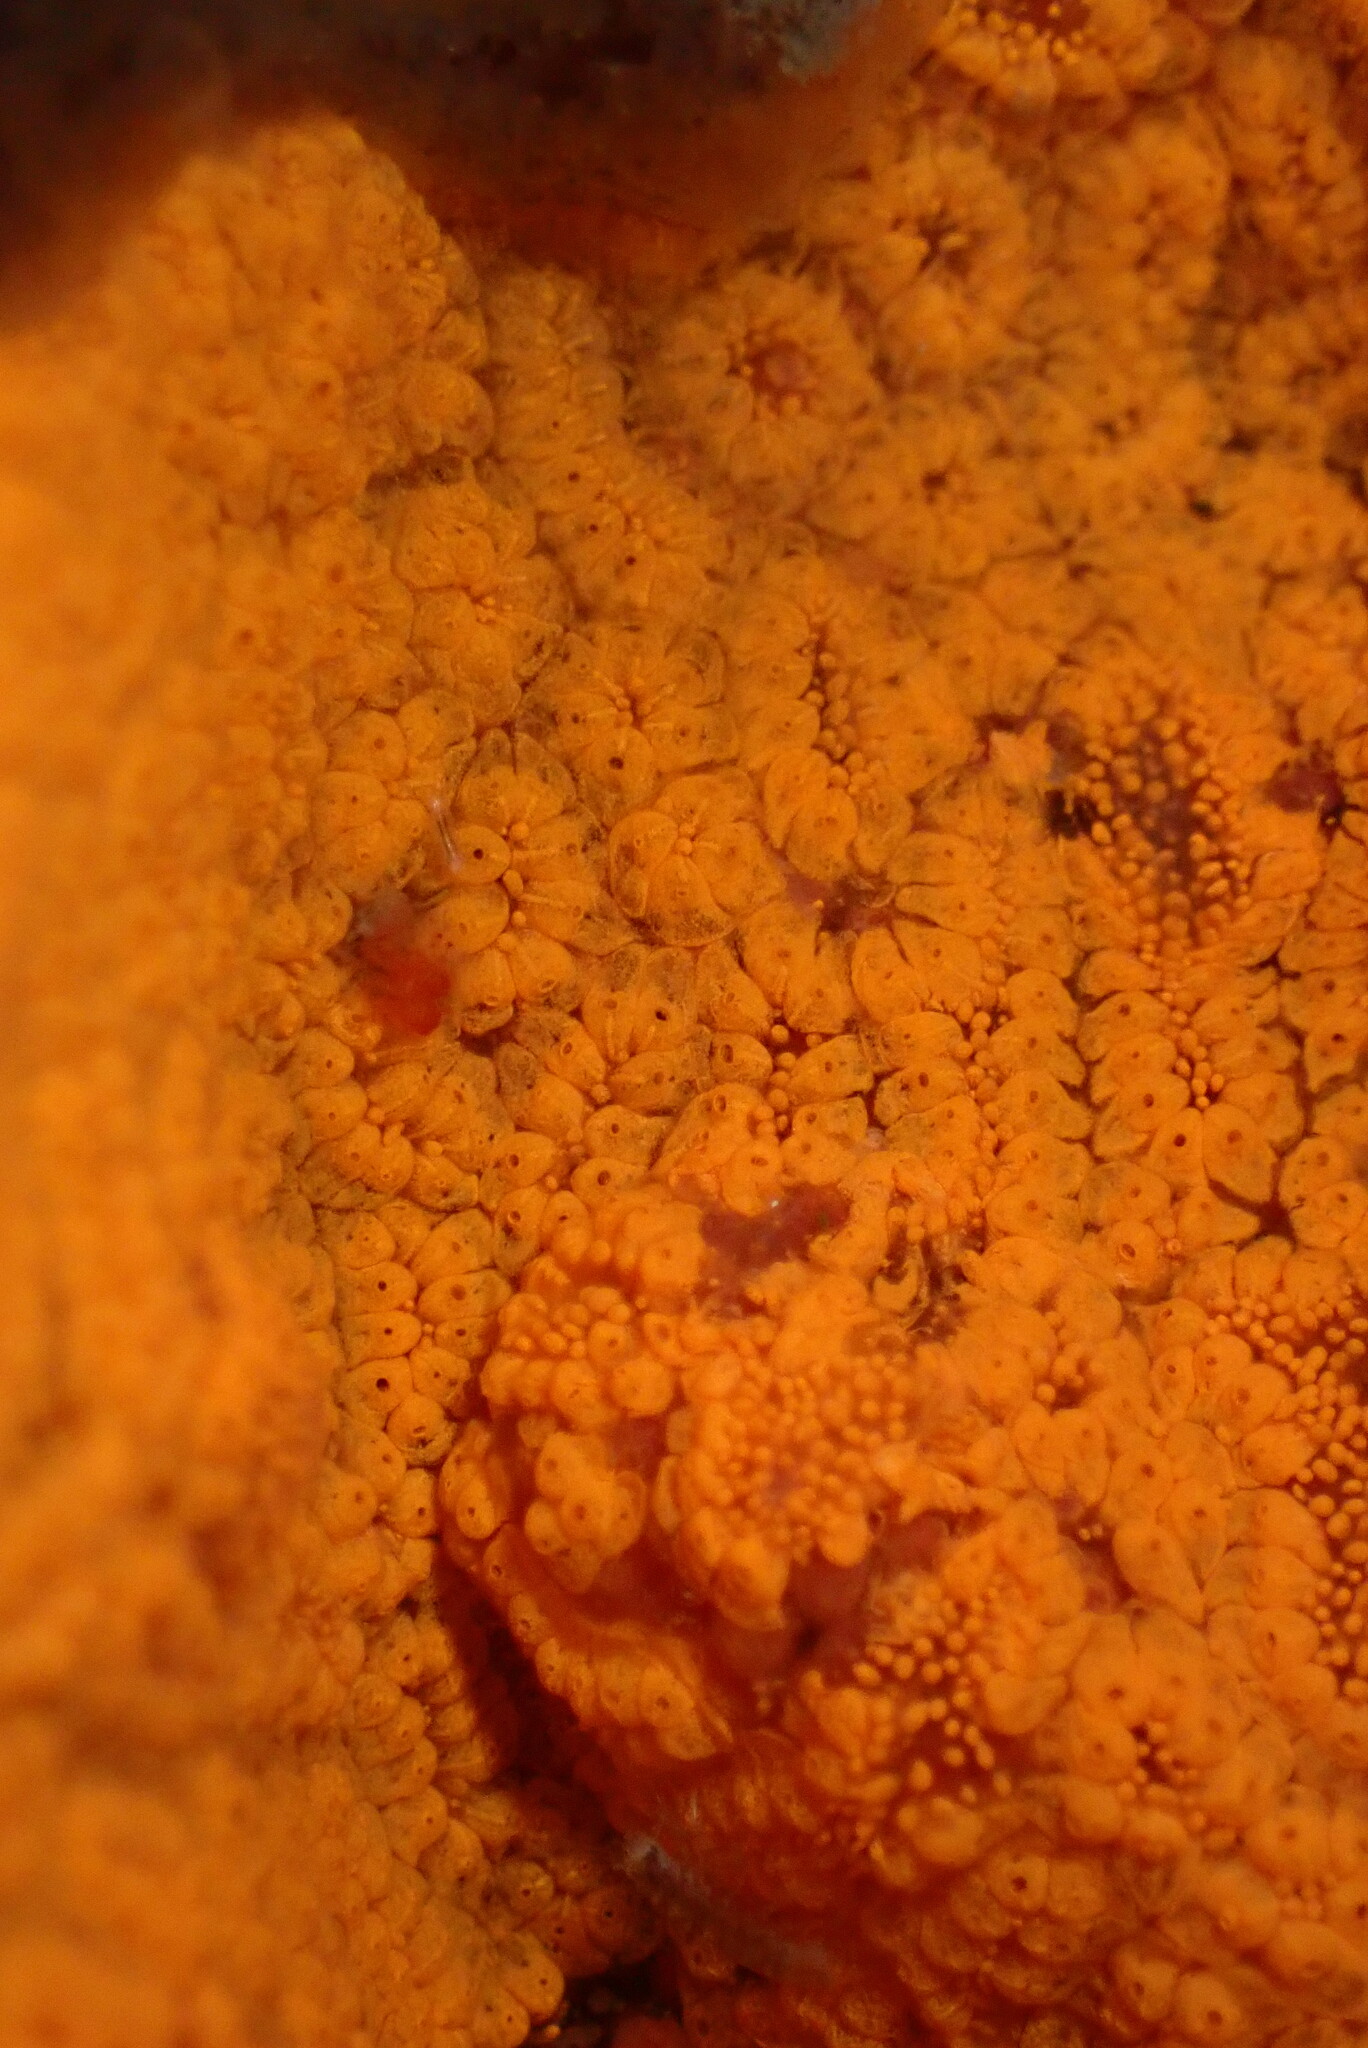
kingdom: Animalia
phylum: Chordata
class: Ascidiacea
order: Stolidobranchia
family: Styelidae
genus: Botrylloides
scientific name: Botrylloides violaceus
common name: Colonial sea squirt
